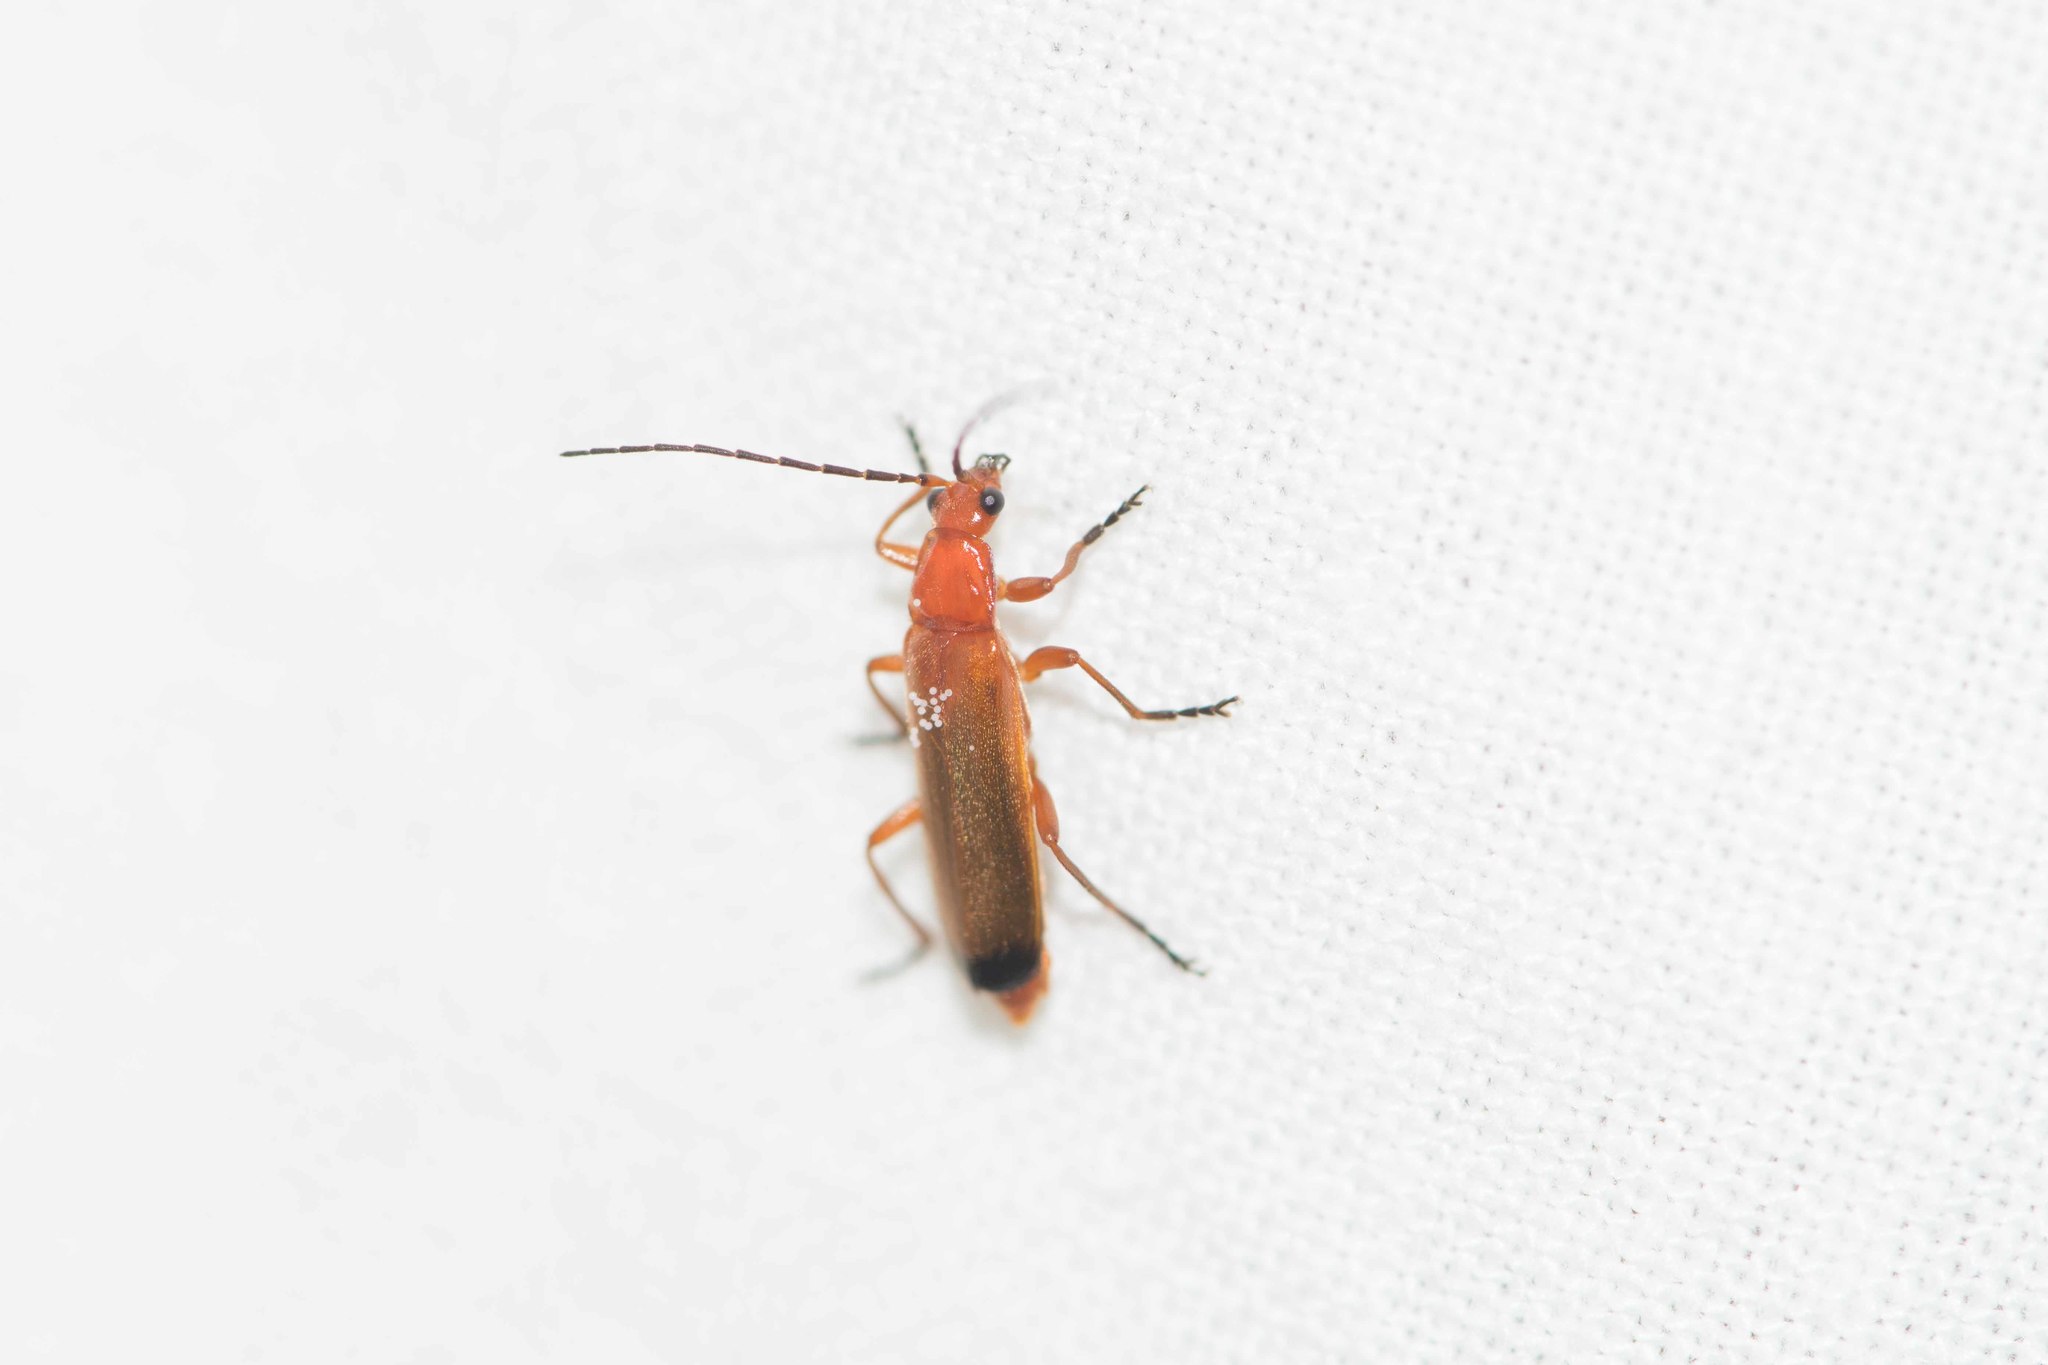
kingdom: Animalia
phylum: Arthropoda
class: Insecta
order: Coleoptera
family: Cantharidae
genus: Rhagonycha
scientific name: Rhagonycha fulva
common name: Common red soldier beetle
